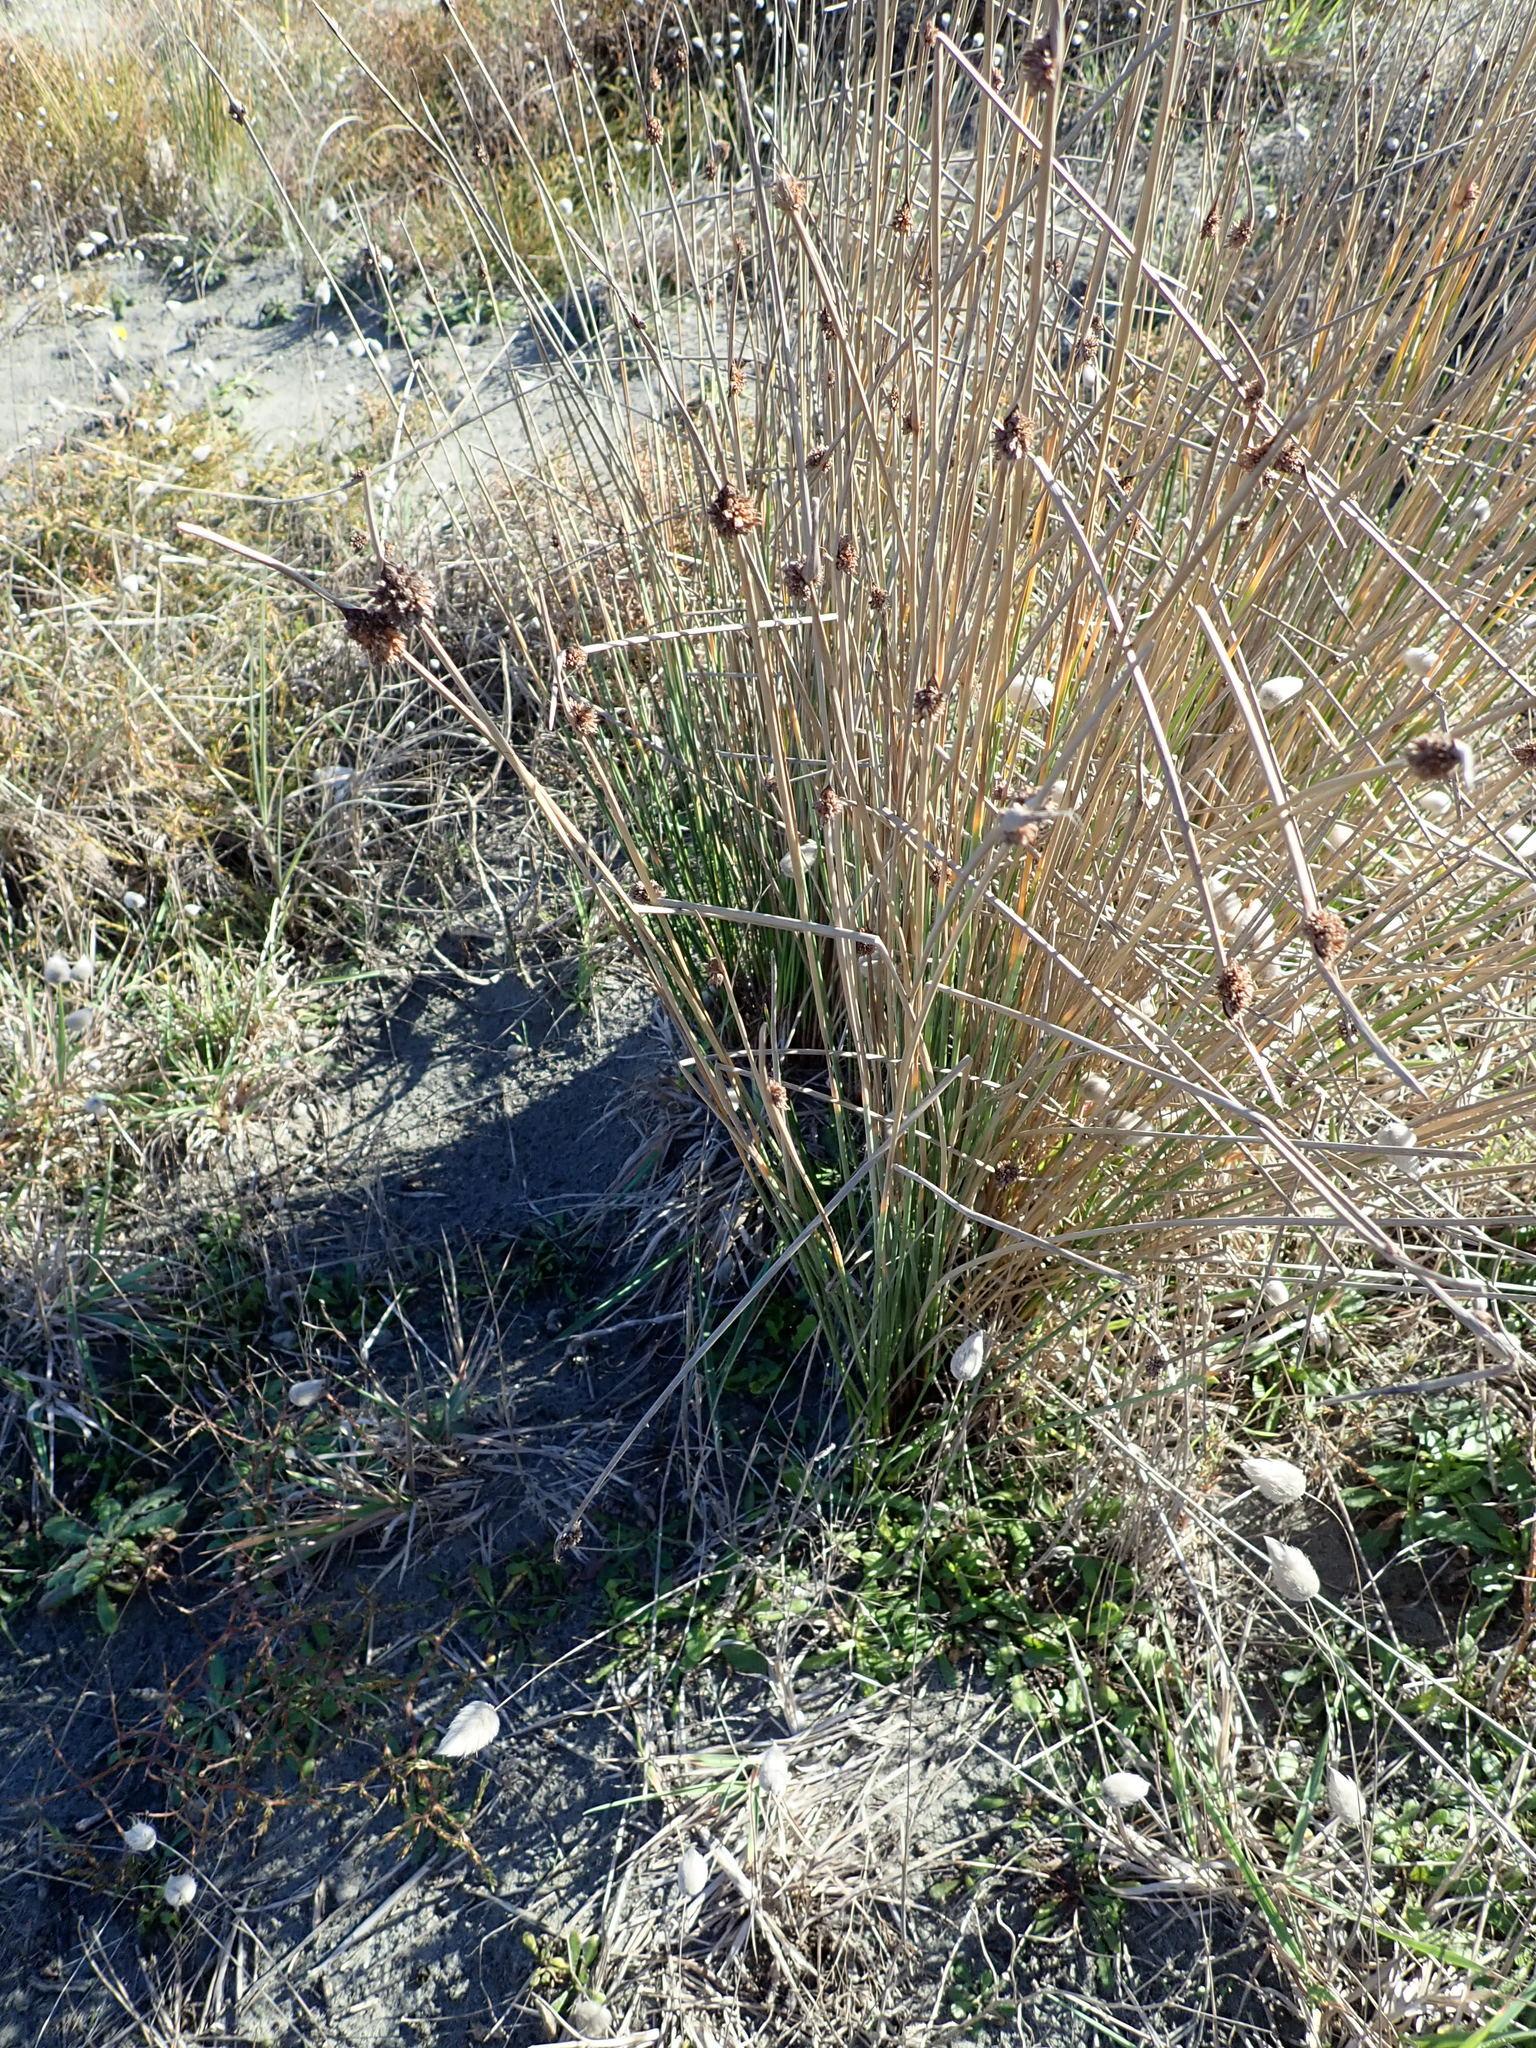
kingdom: Plantae
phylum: Tracheophyta
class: Liliopsida
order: Poales
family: Cyperaceae
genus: Ficinia
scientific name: Ficinia nodosa
